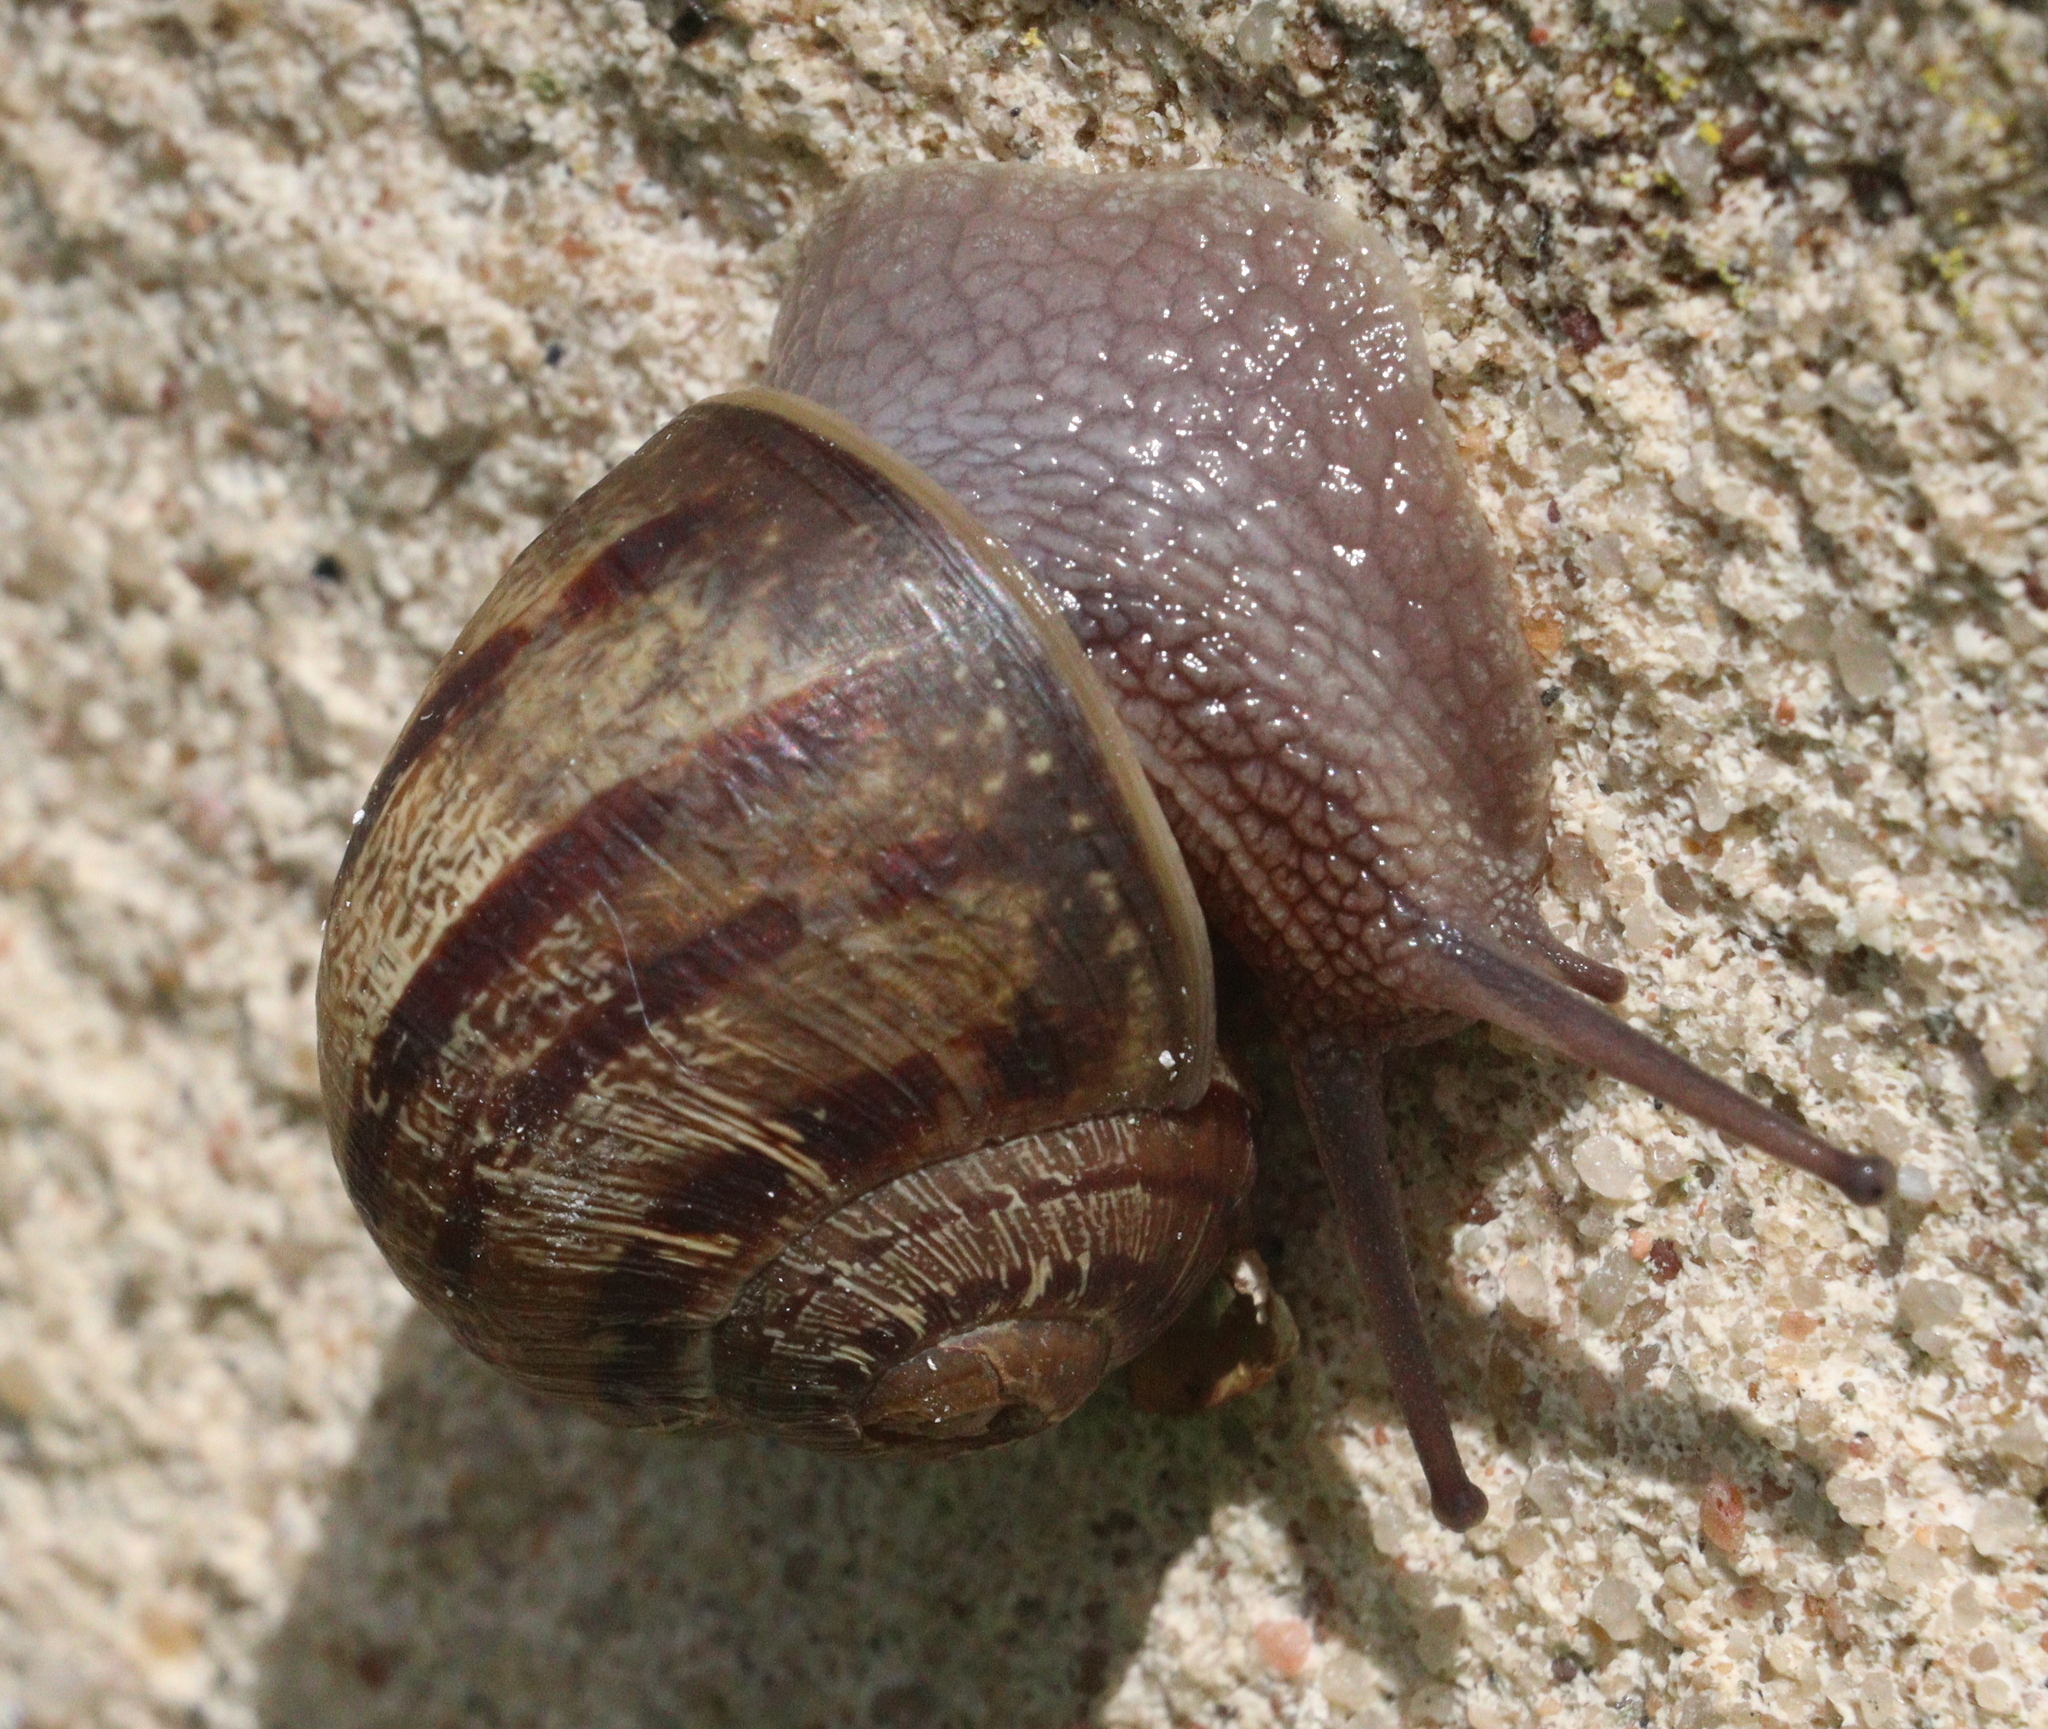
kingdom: Animalia
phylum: Mollusca
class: Gastropoda
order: Stylommatophora
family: Helicidae
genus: Cornu
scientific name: Cornu aspersum
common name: Brown garden snail
